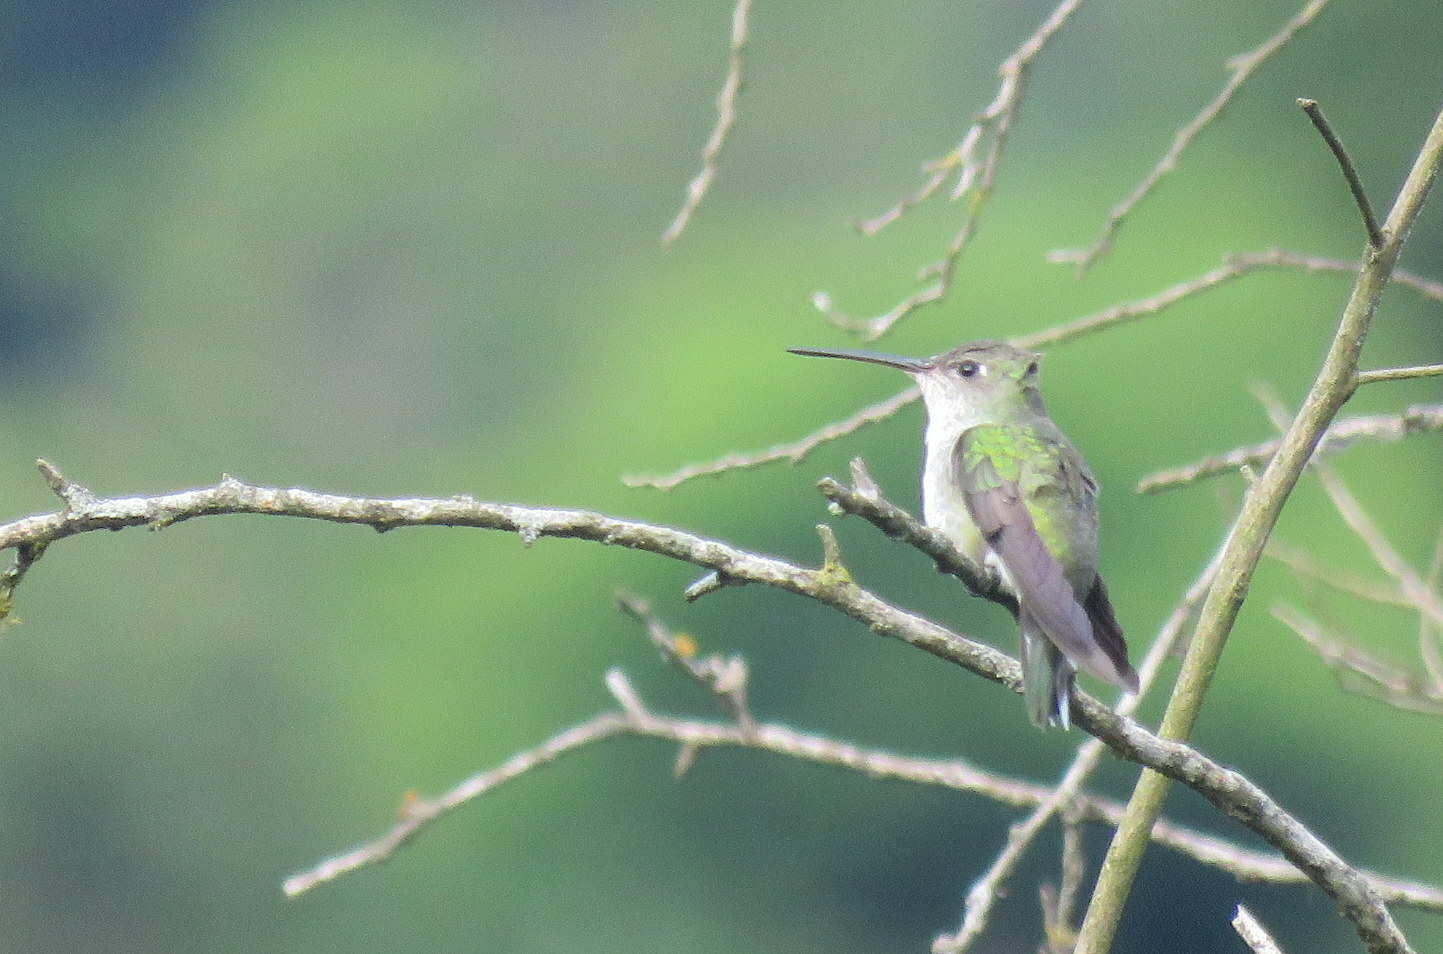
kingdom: Animalia
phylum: Chordata
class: Aves
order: Apodiformes
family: Trochilidae
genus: Elliotomyia
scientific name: Elliotomyia chionogaster
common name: White-bellied hummingbird
